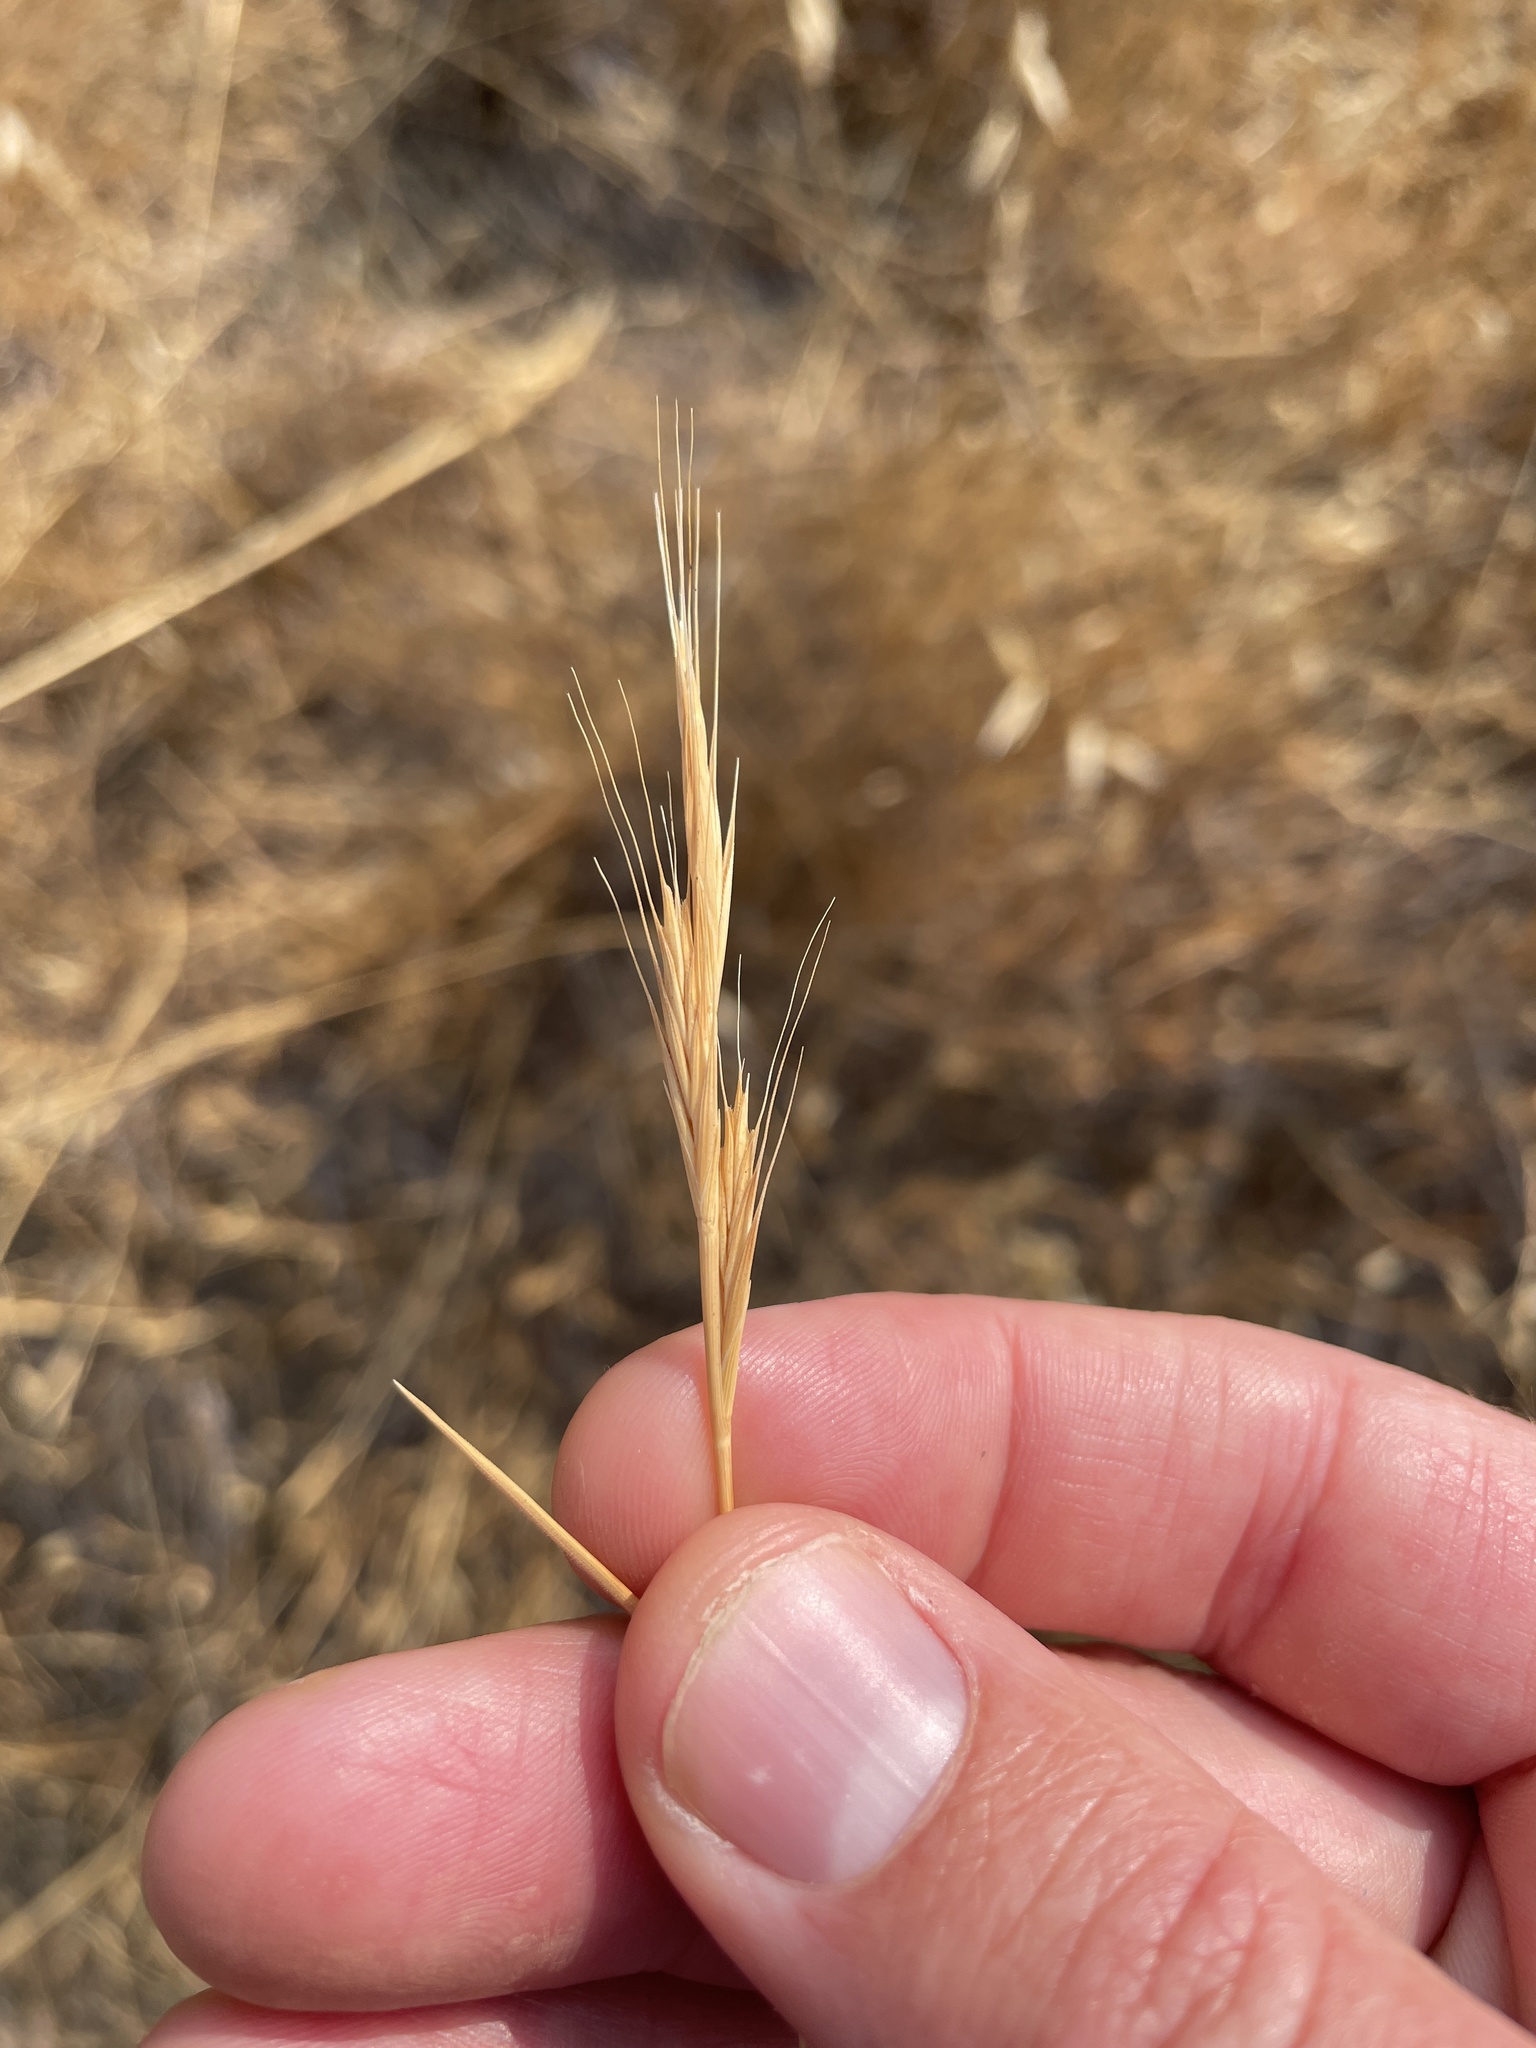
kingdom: Plantae
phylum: Tracheophyta
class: Liliopsida
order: Poales
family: Poaceae
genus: Brachypodium
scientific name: Brachypodium distachyon
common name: Stiff brome
